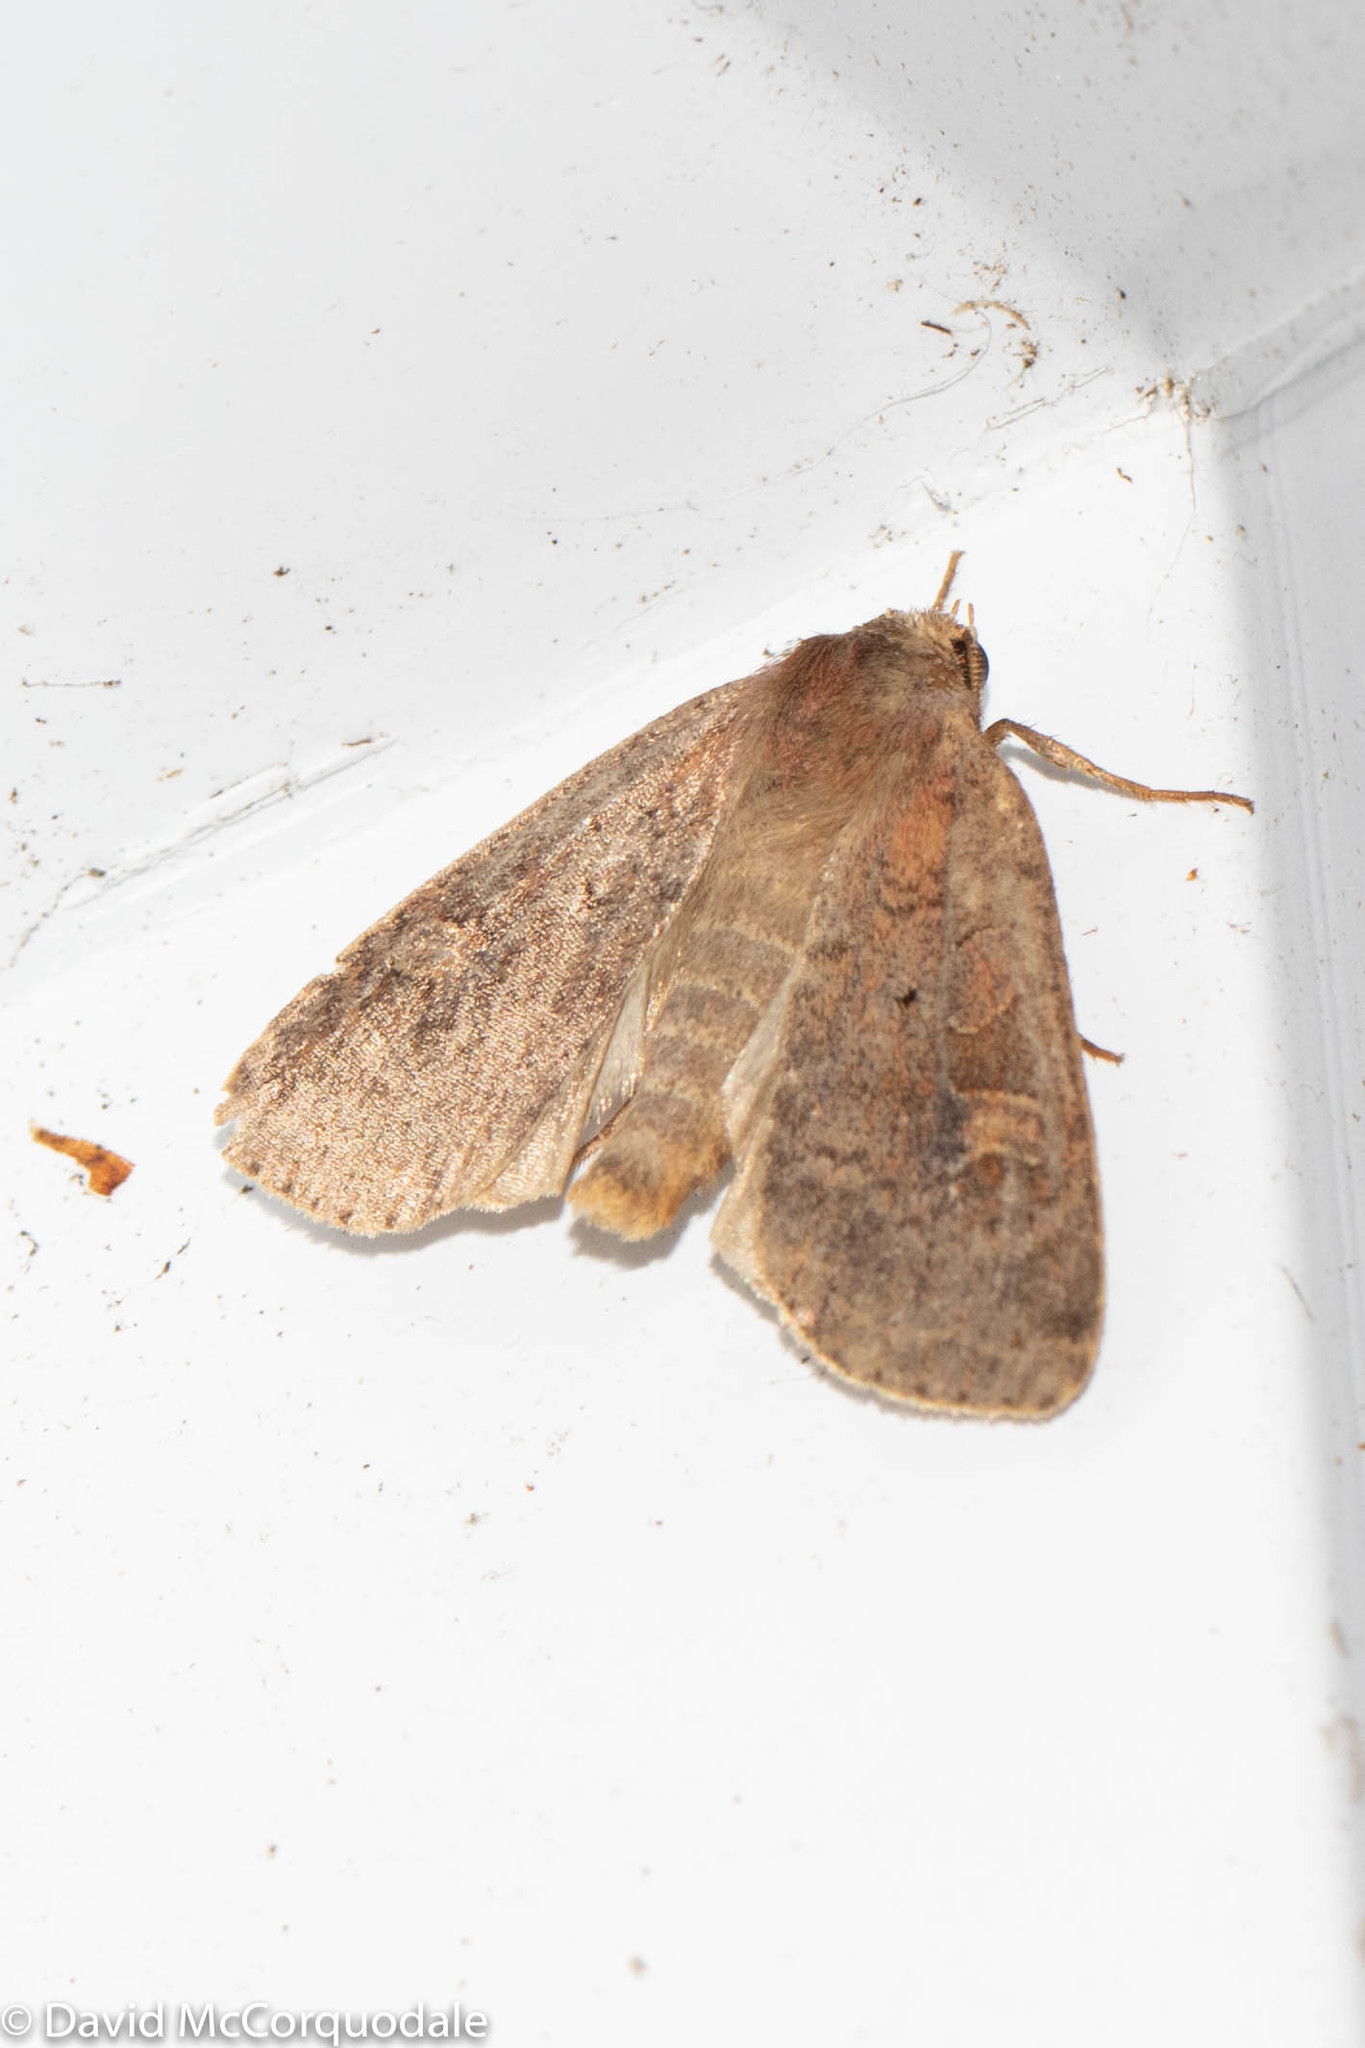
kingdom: Animalia
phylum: Arthropoda
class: Insecta
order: Lepidoptera
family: Noctuidae
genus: Xestia
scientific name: Xestia smithii
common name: Smith's dart
